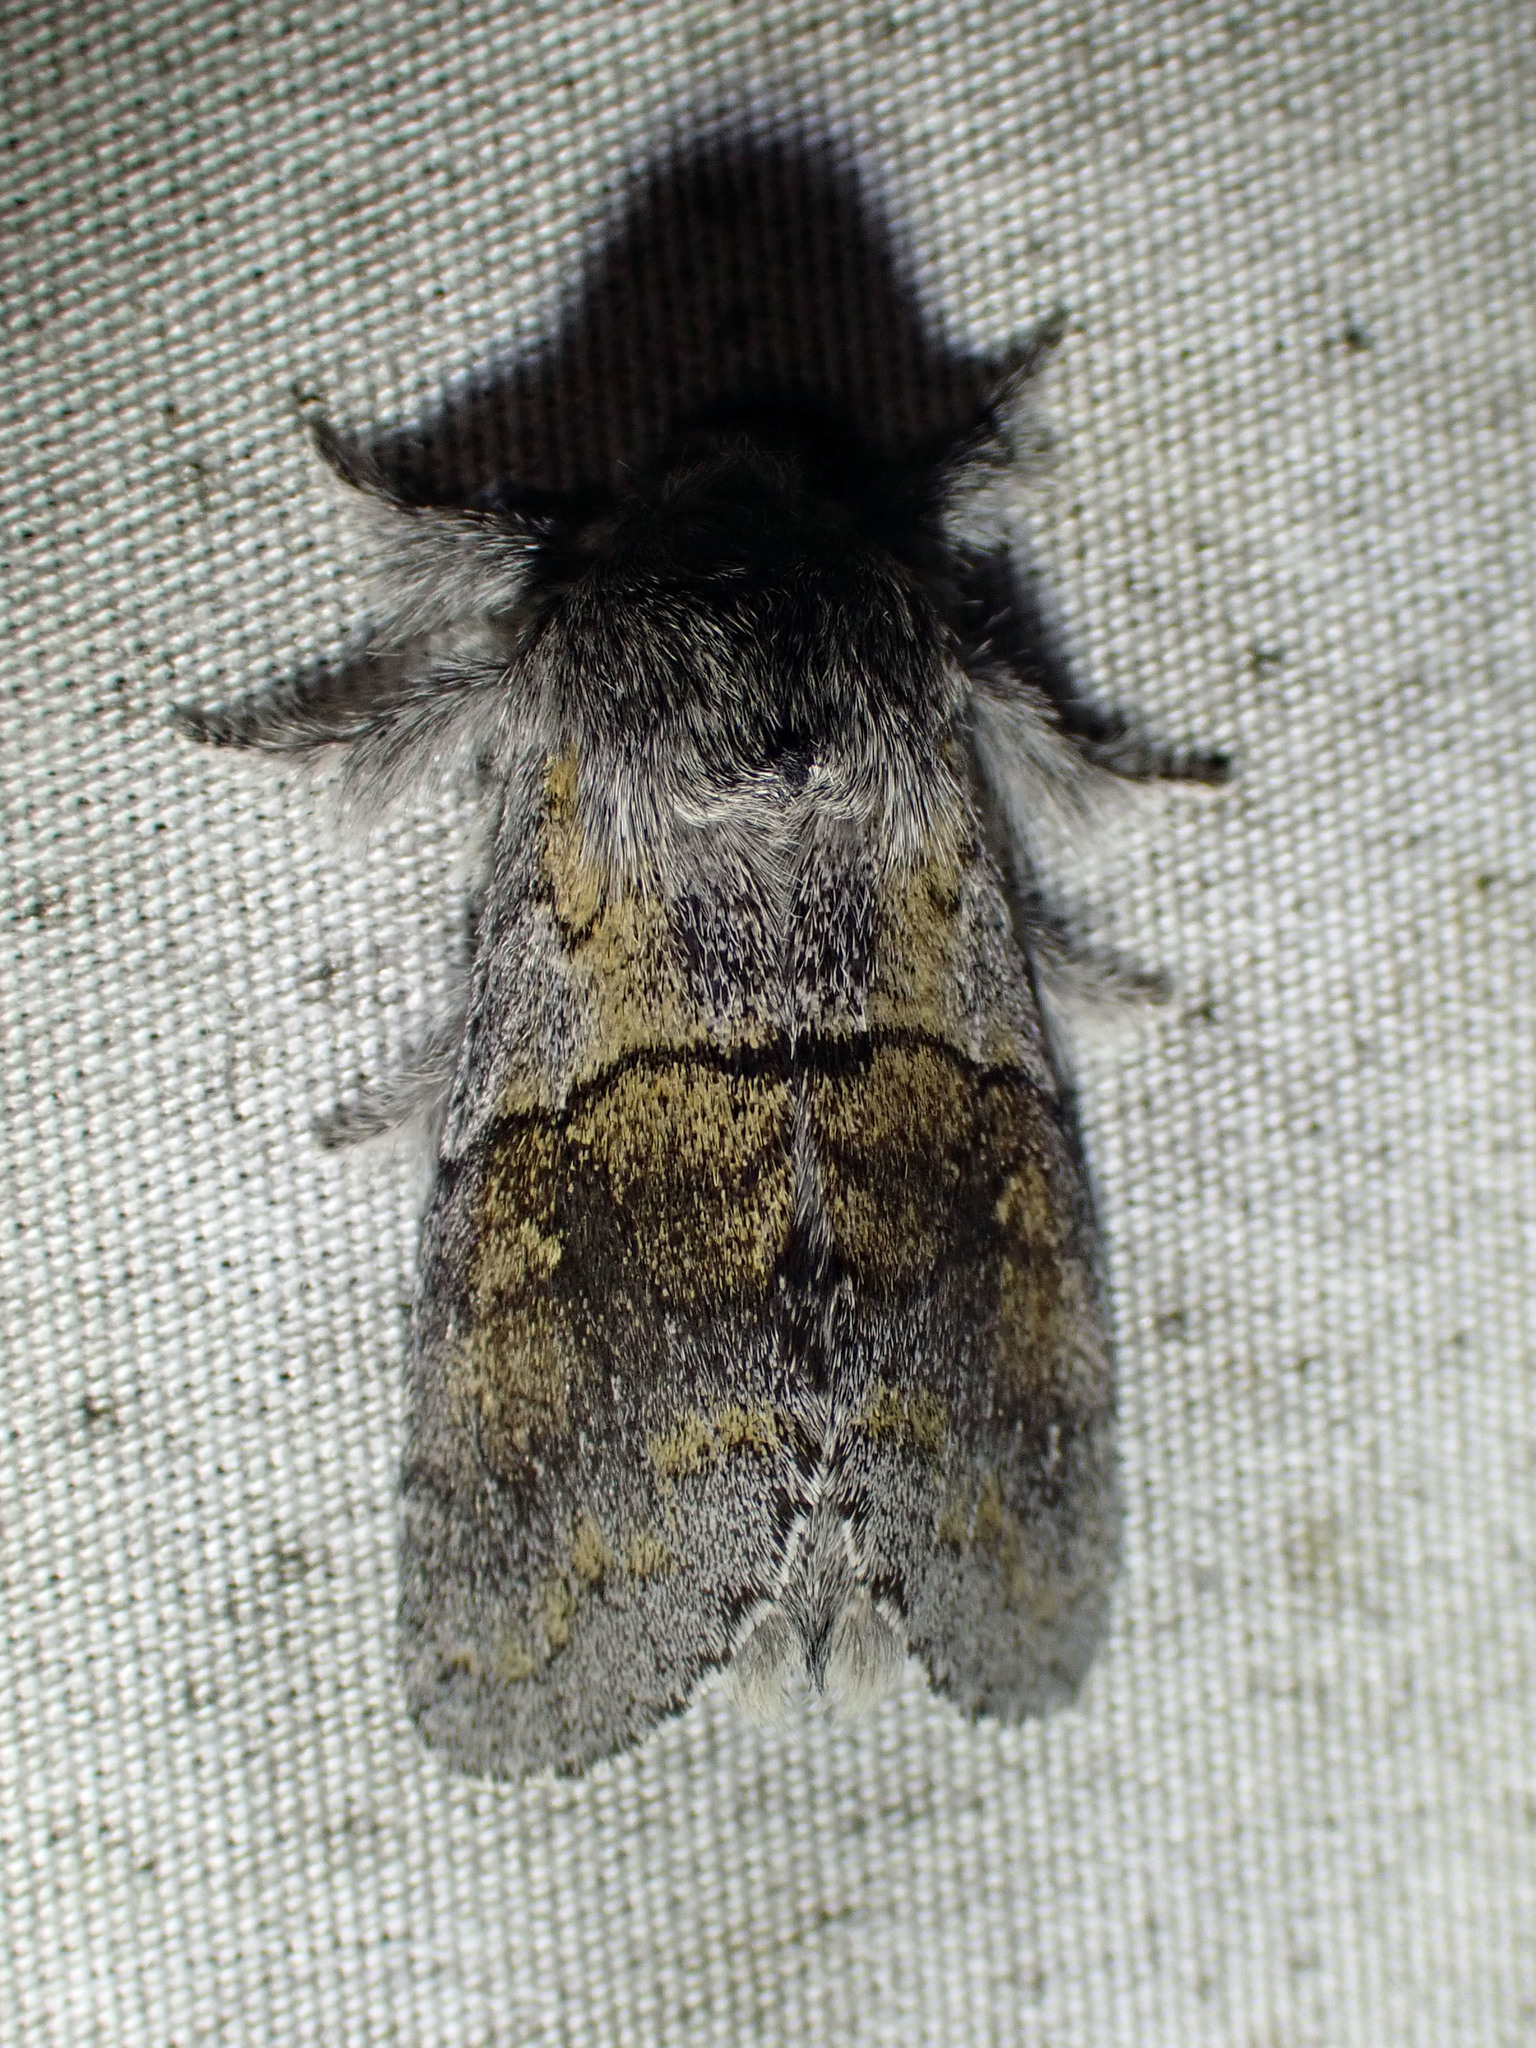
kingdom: Animalia
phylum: Arthropoda
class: Insecta
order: Lepidoptera
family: Notodontidae
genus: Gluphisia
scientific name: Gluphisia lintneri
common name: Lintner's gluphisia moth
